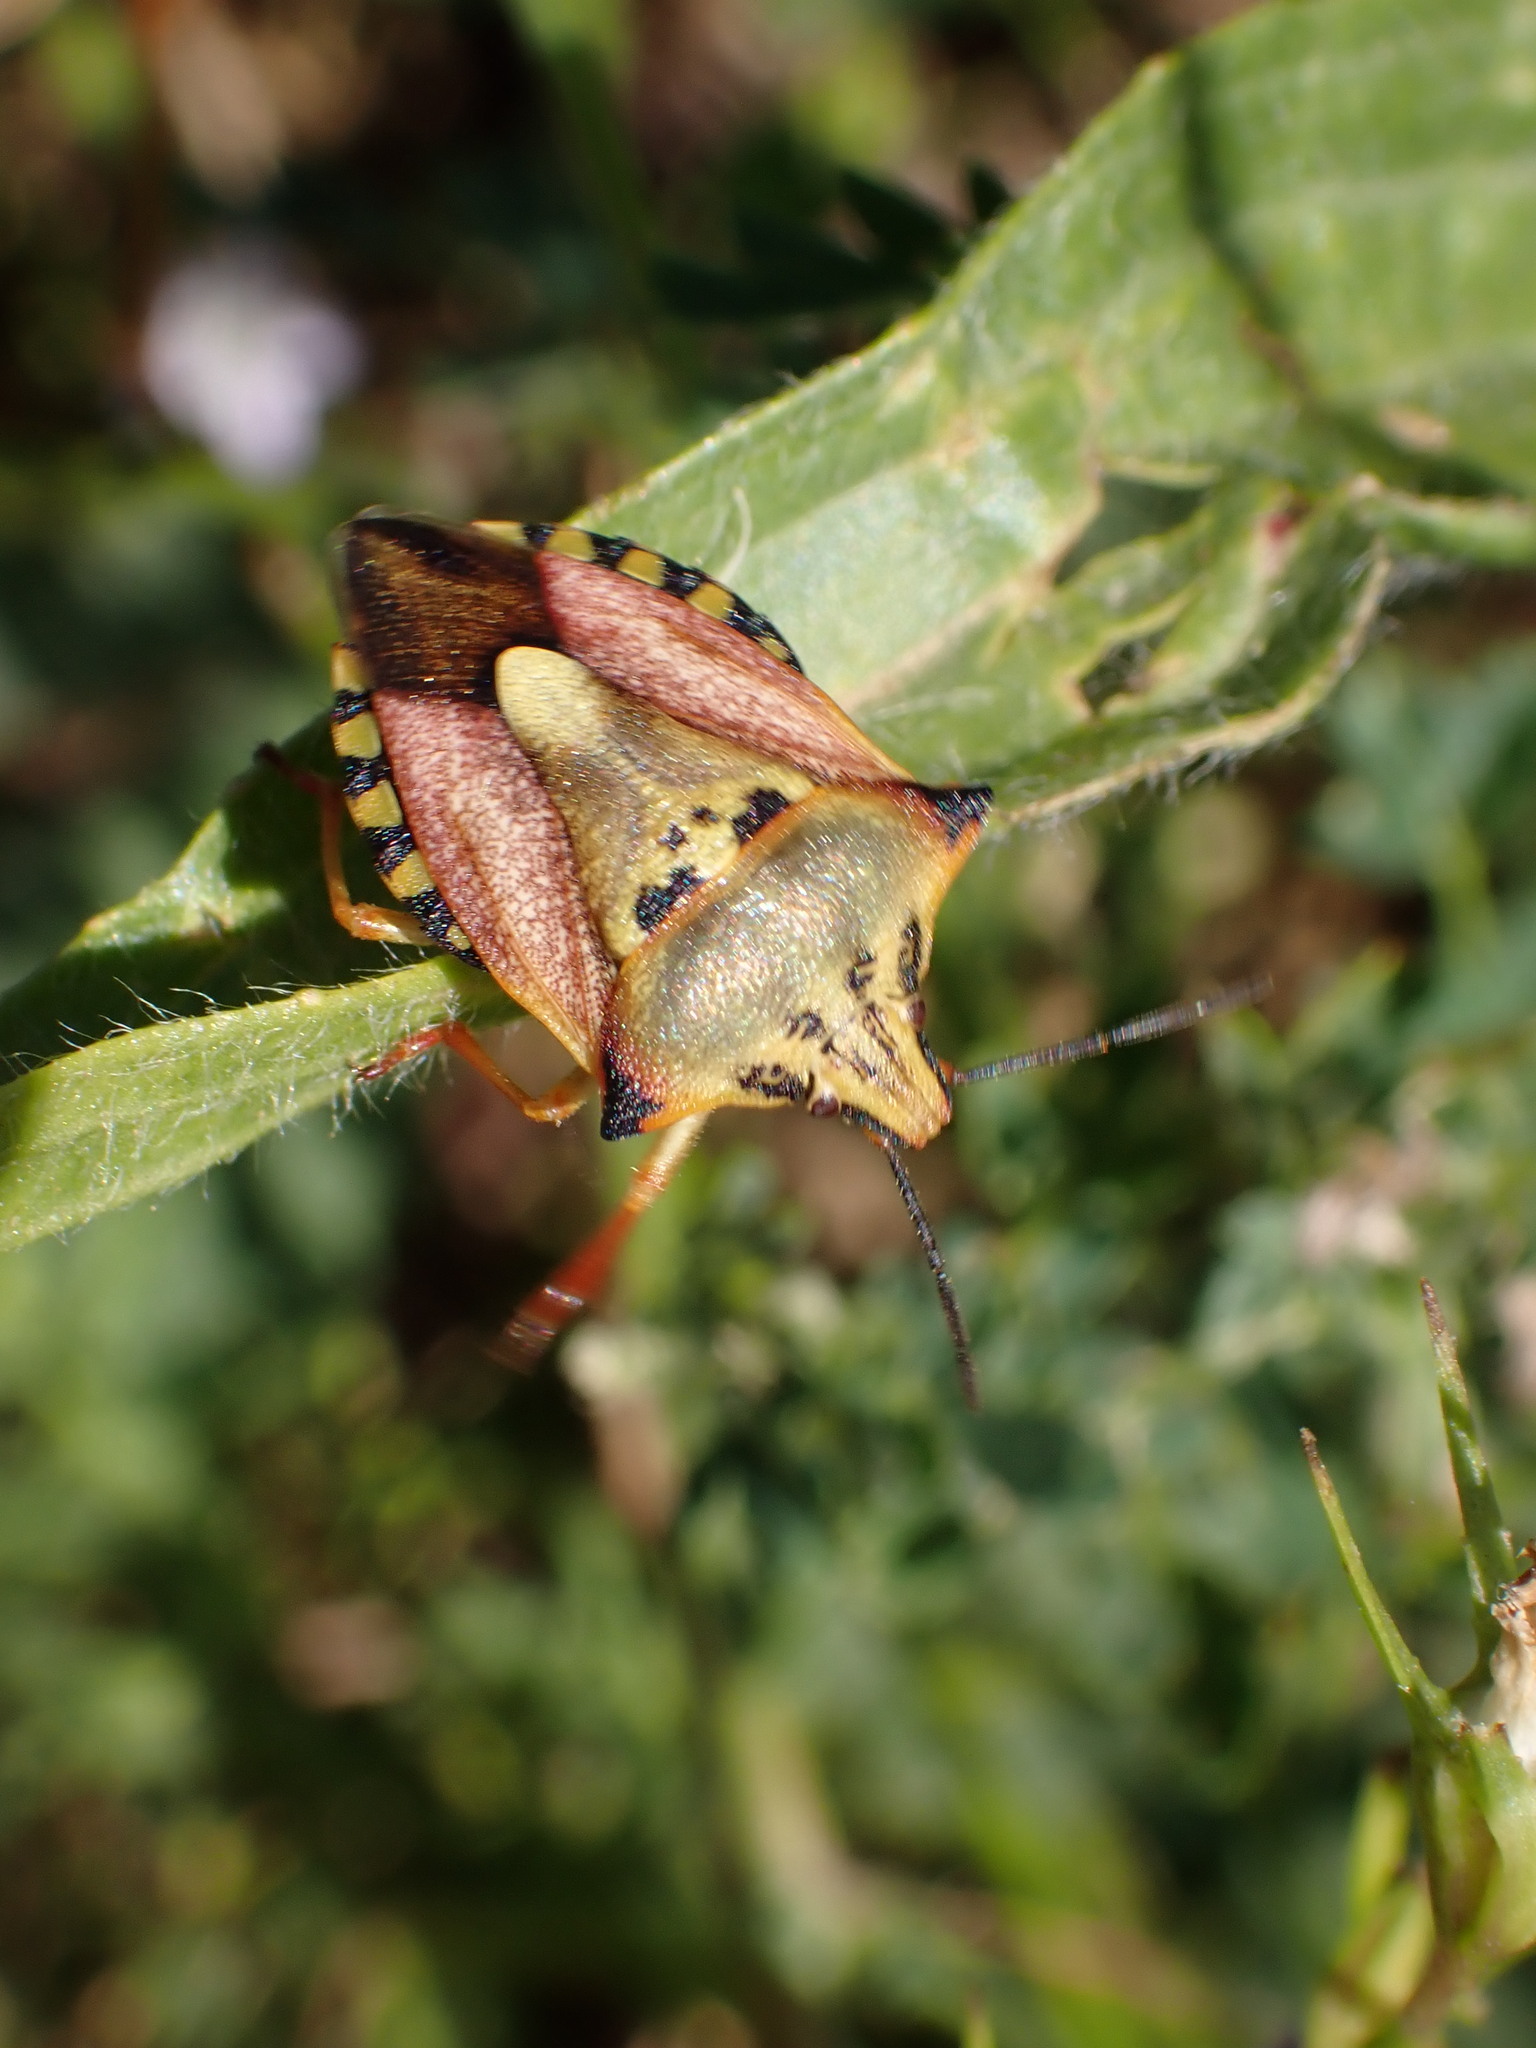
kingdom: Animalia
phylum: Arthropoda
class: Insecta
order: Hemiptera
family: Pentatomidae
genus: Carpocoris
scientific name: Carpocoris mediterraneus
